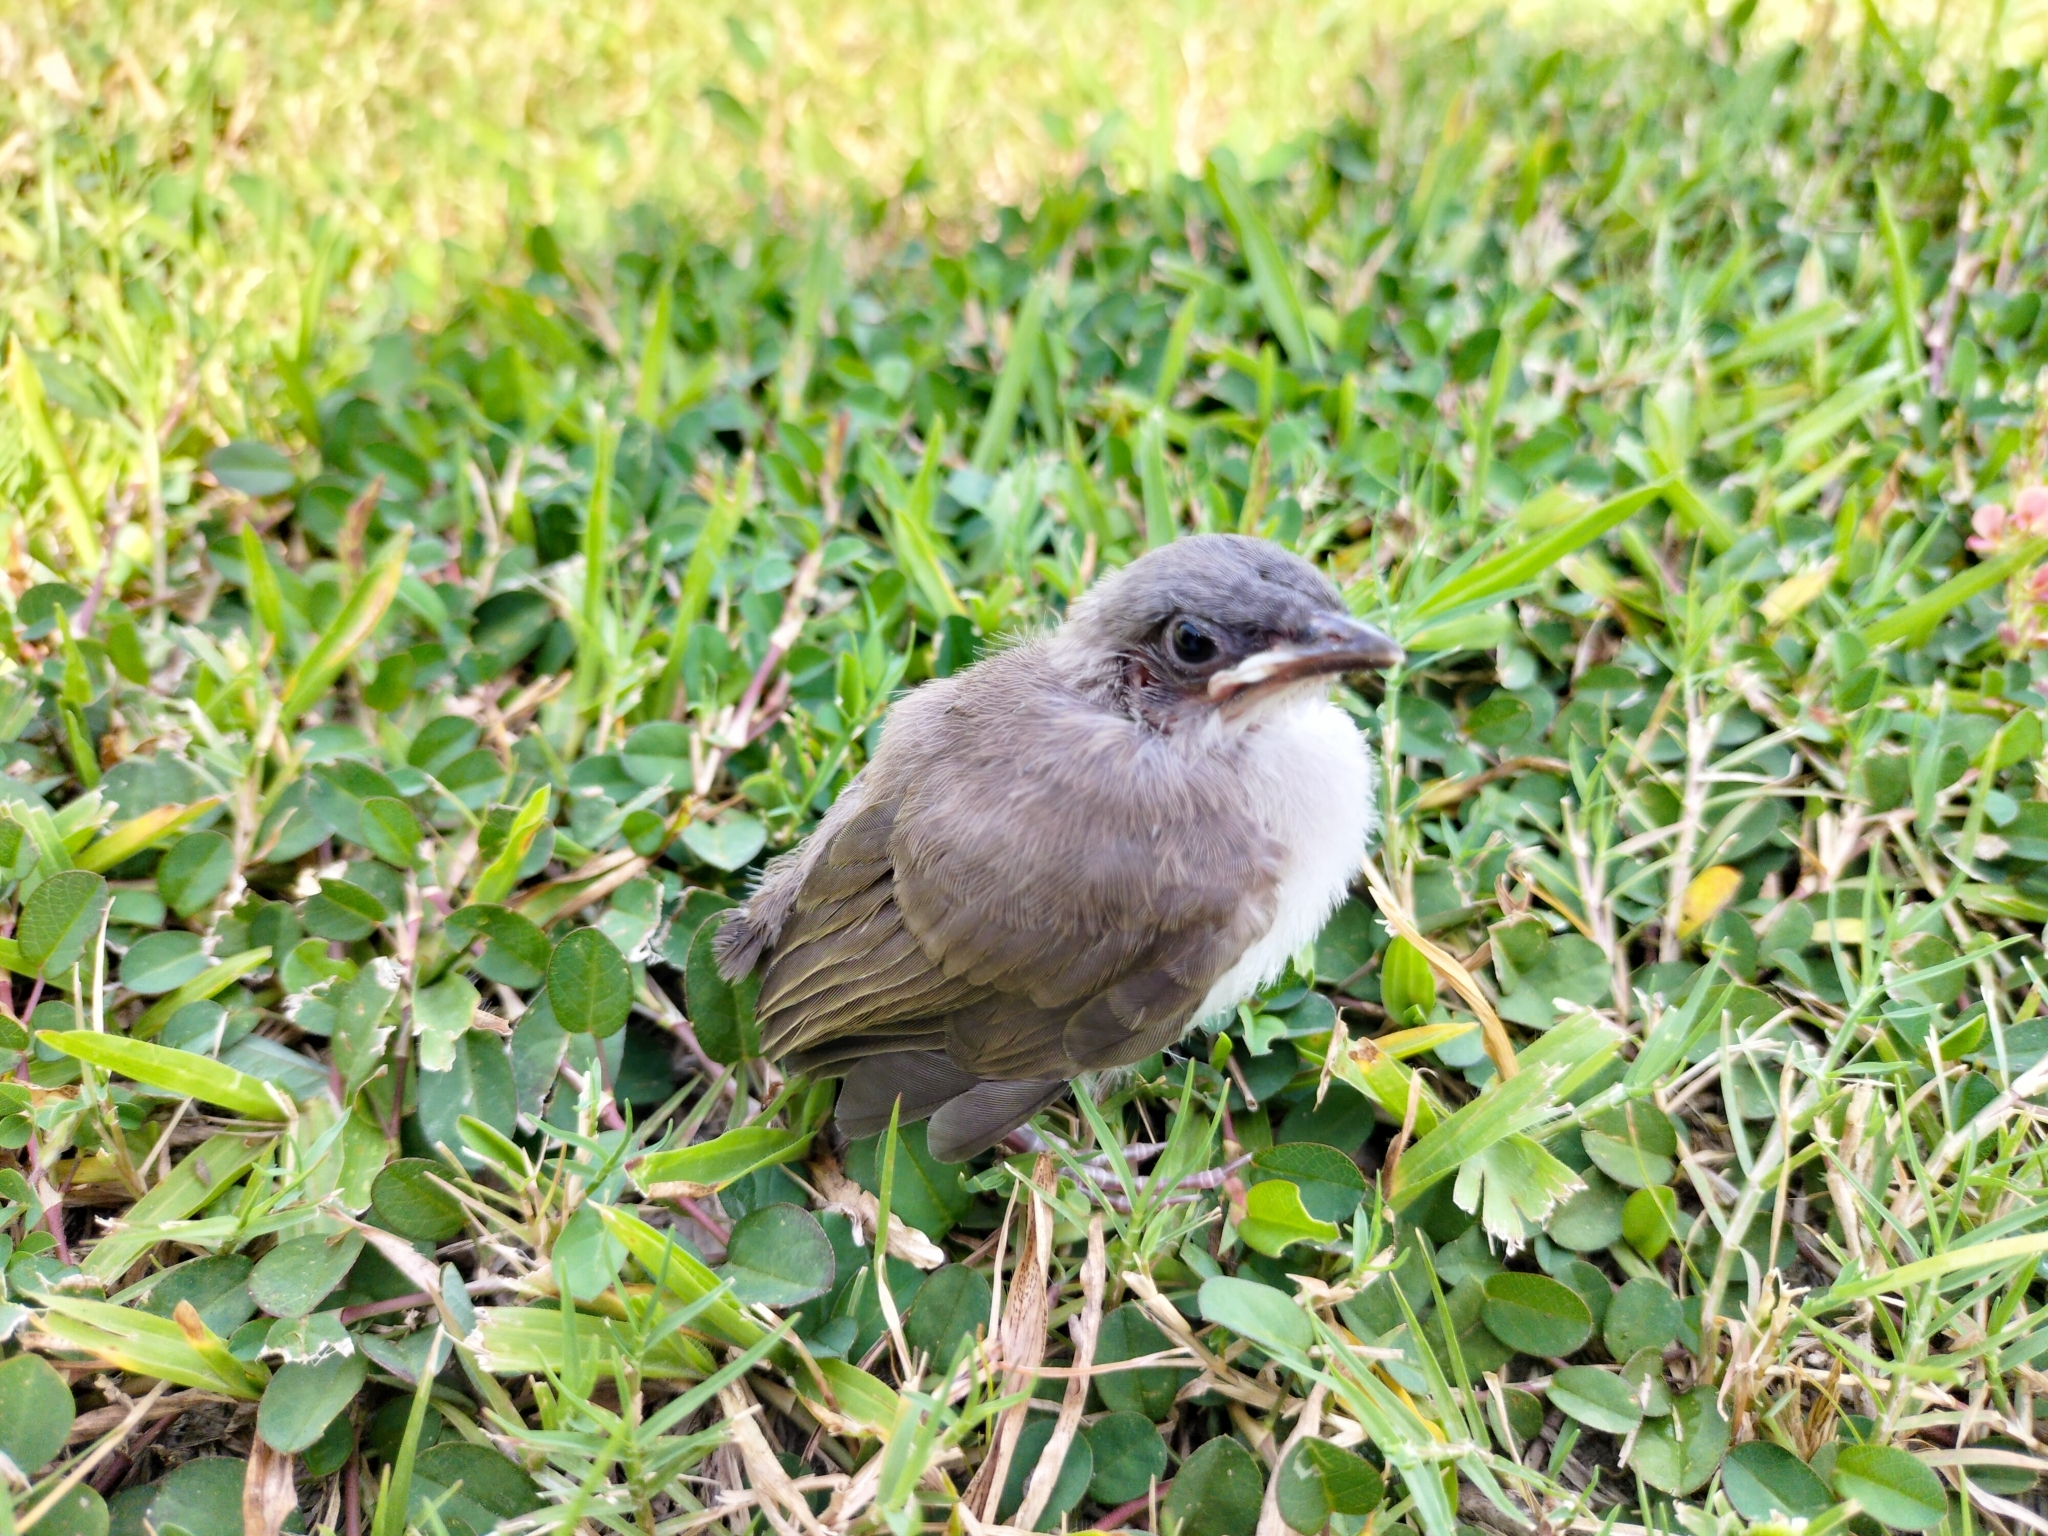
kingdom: Animalia
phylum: Chordata
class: Aves
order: Passeriformes
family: Pycnonotidae
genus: Pycnonotus
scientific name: Pycnonotus sinensis
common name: Light-vented bulbul
